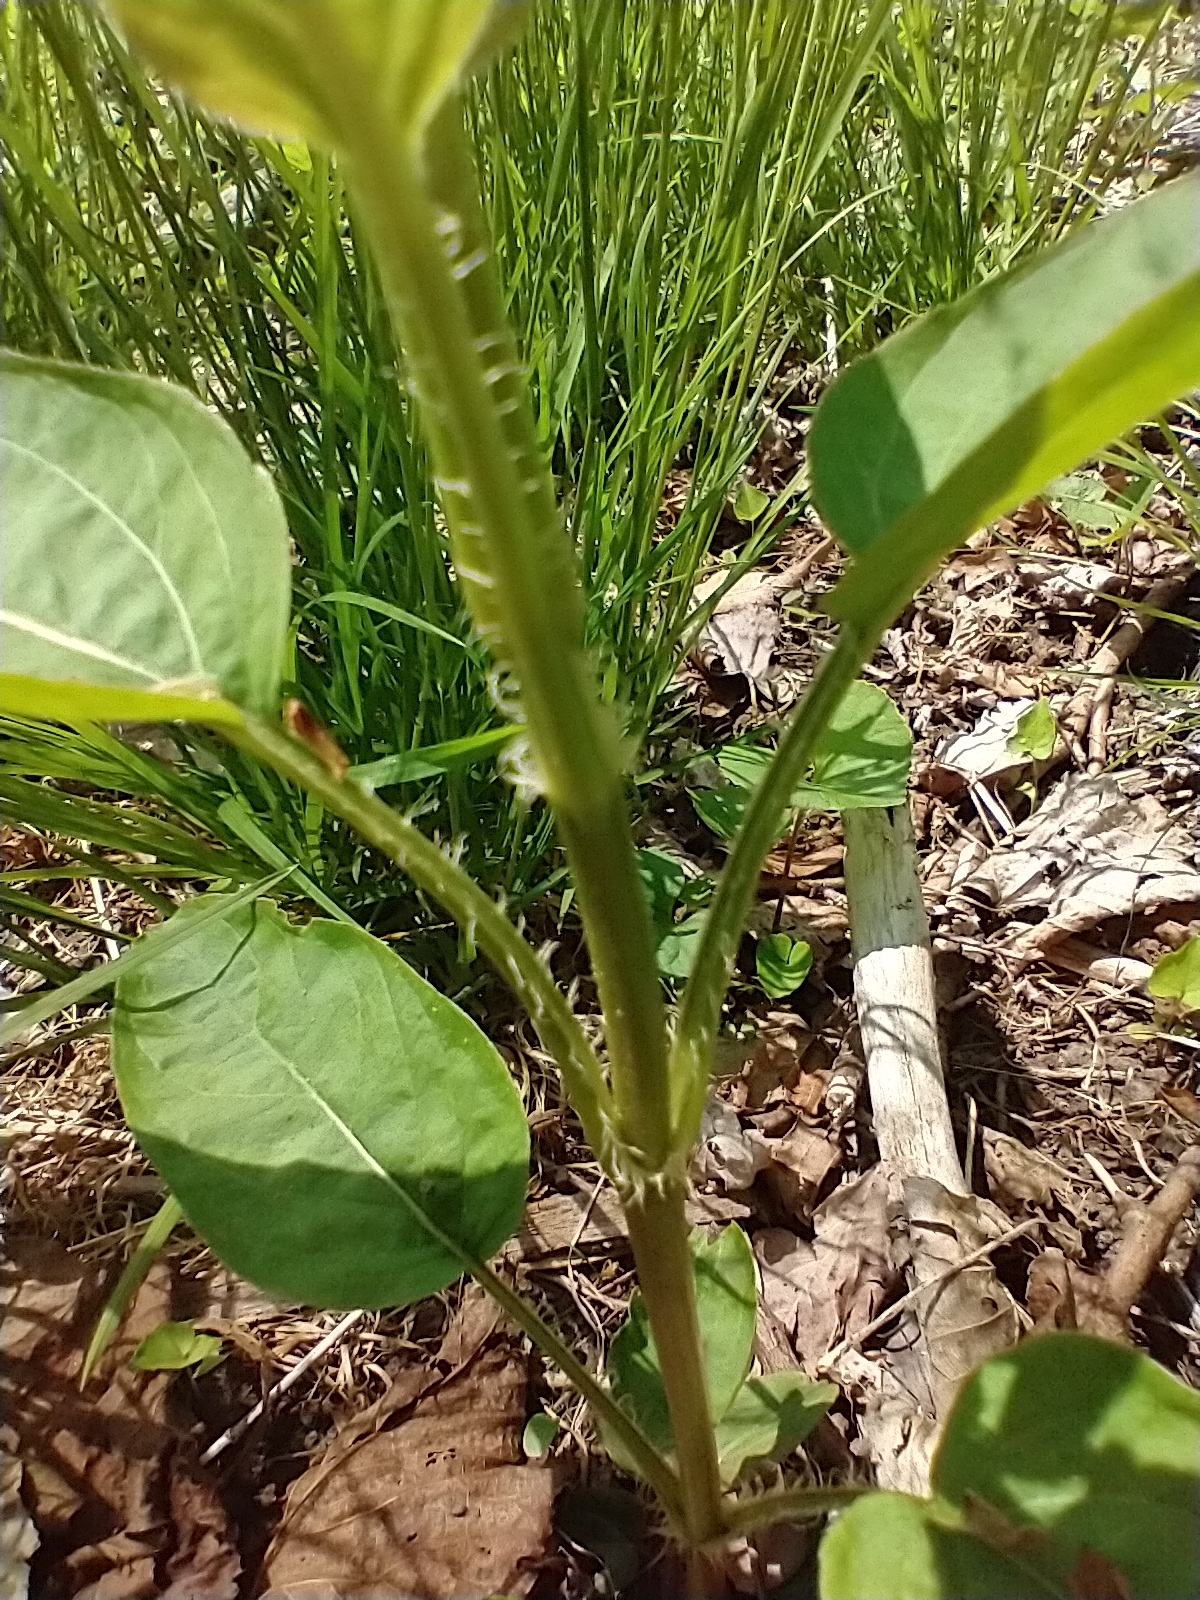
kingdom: Plantae
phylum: Tracheophyta
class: Magnoliopsida
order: Ericales
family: Primulaceae
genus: Lysimachia
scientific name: Lysimachia ciliata
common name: Fringed loosestrife
